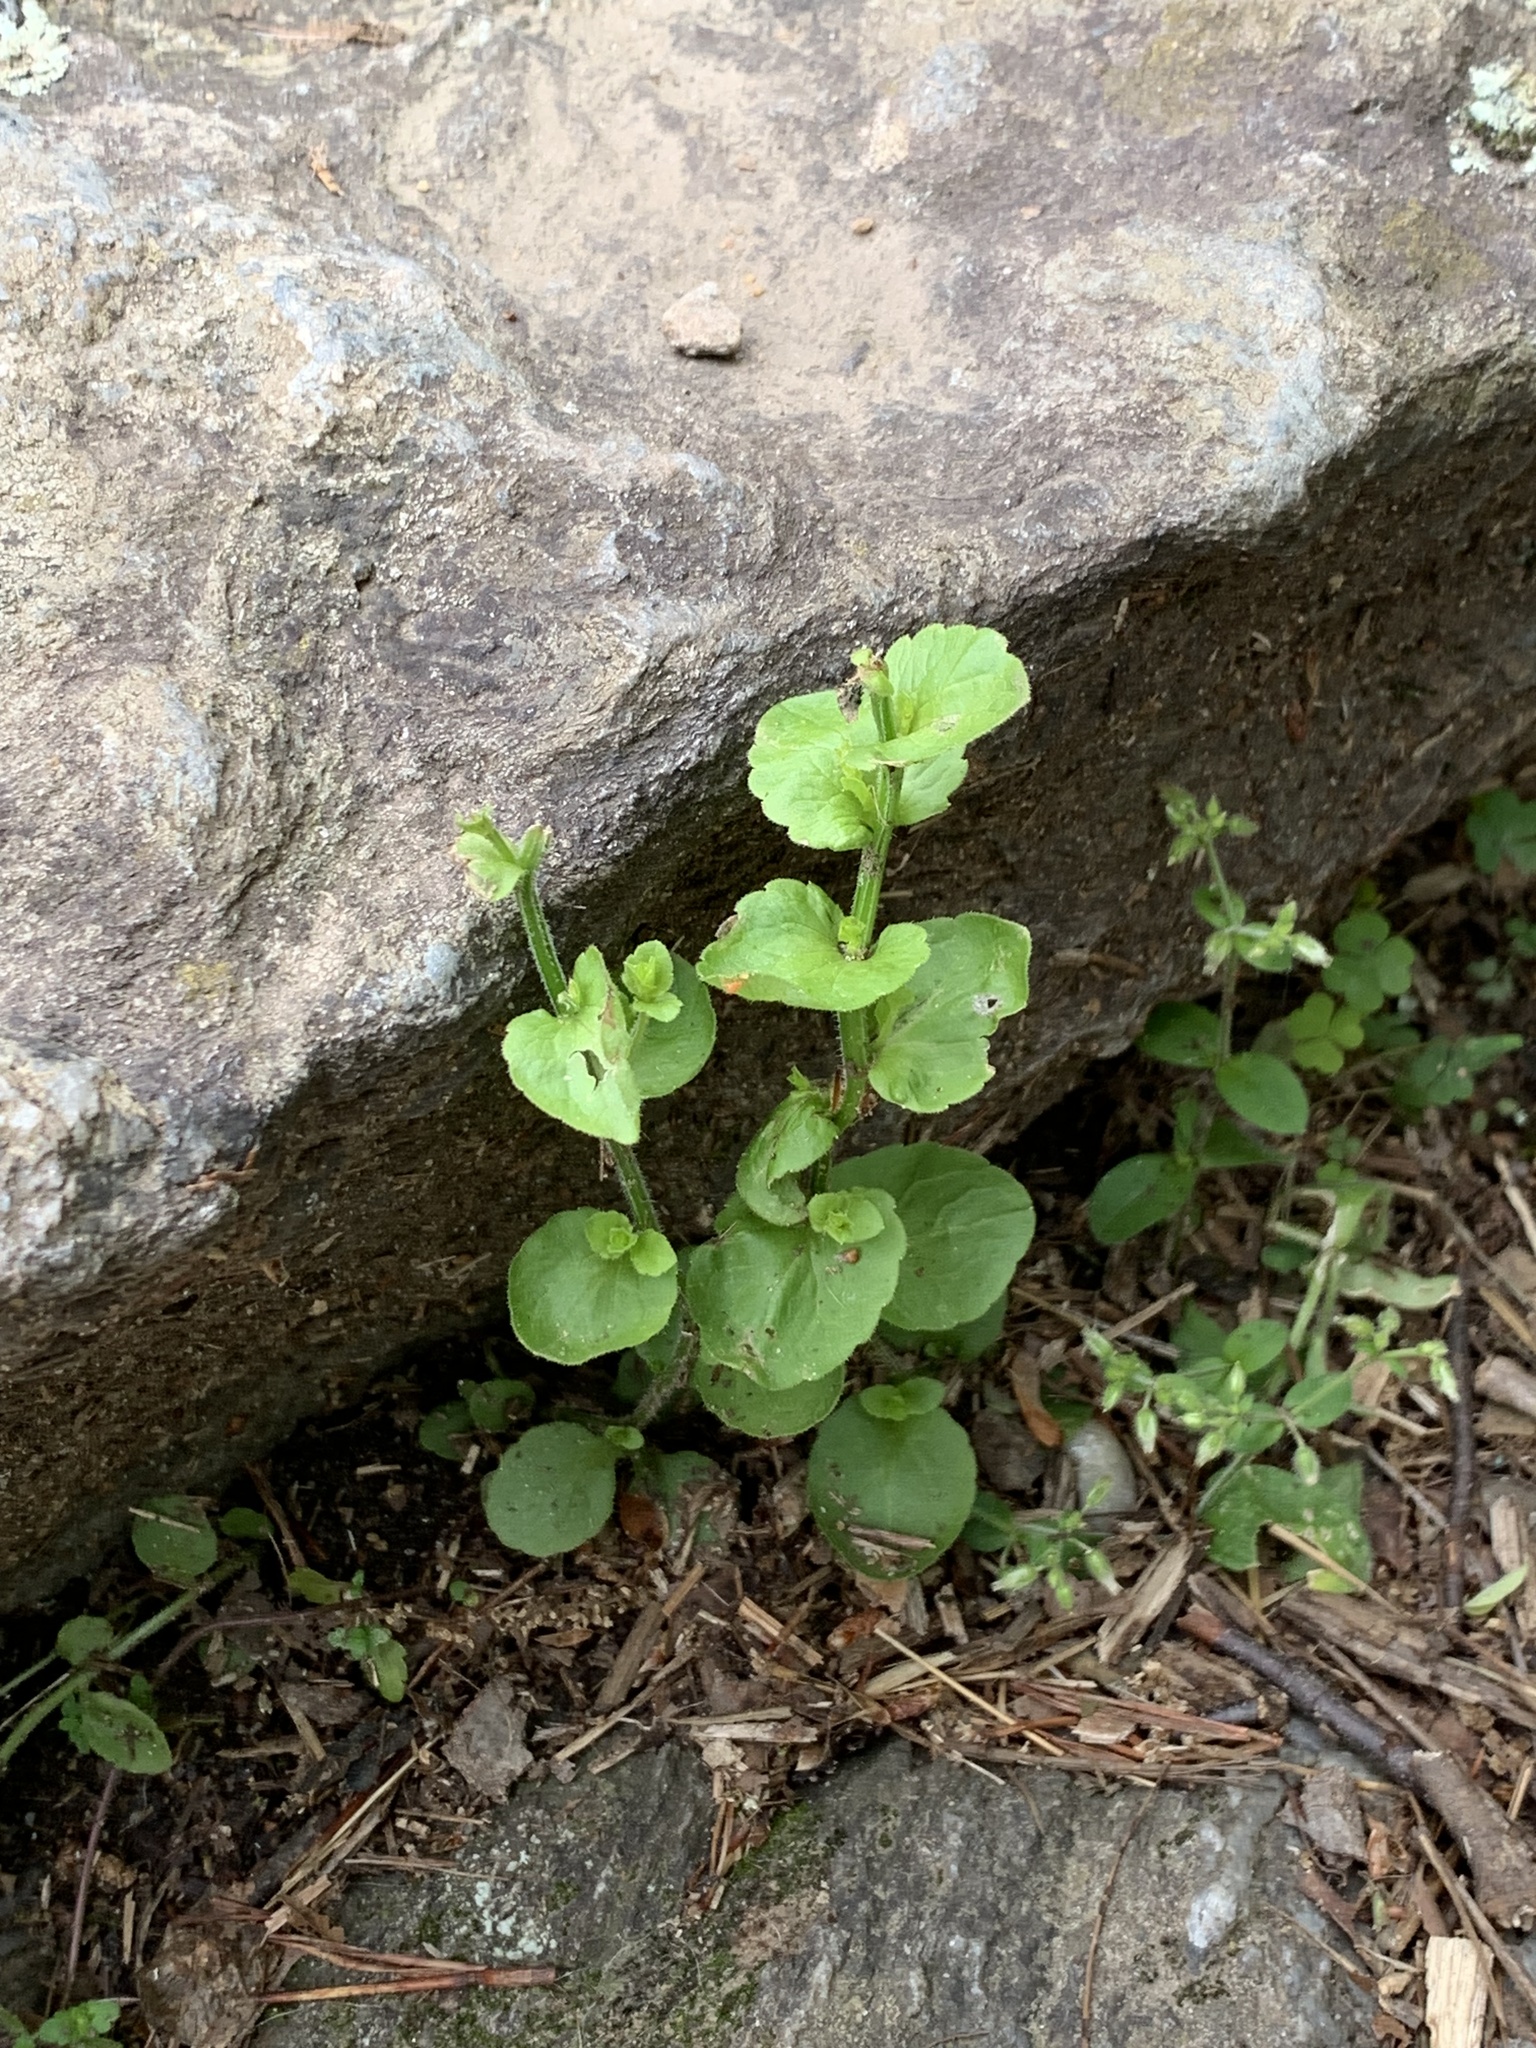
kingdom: Plantae
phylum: Tracheophyta
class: Magnoliopsida
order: Asterales
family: Campanulaceae
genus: Triodanis
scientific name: Triodanis perfoliata
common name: Clasping venus' looking-glass
